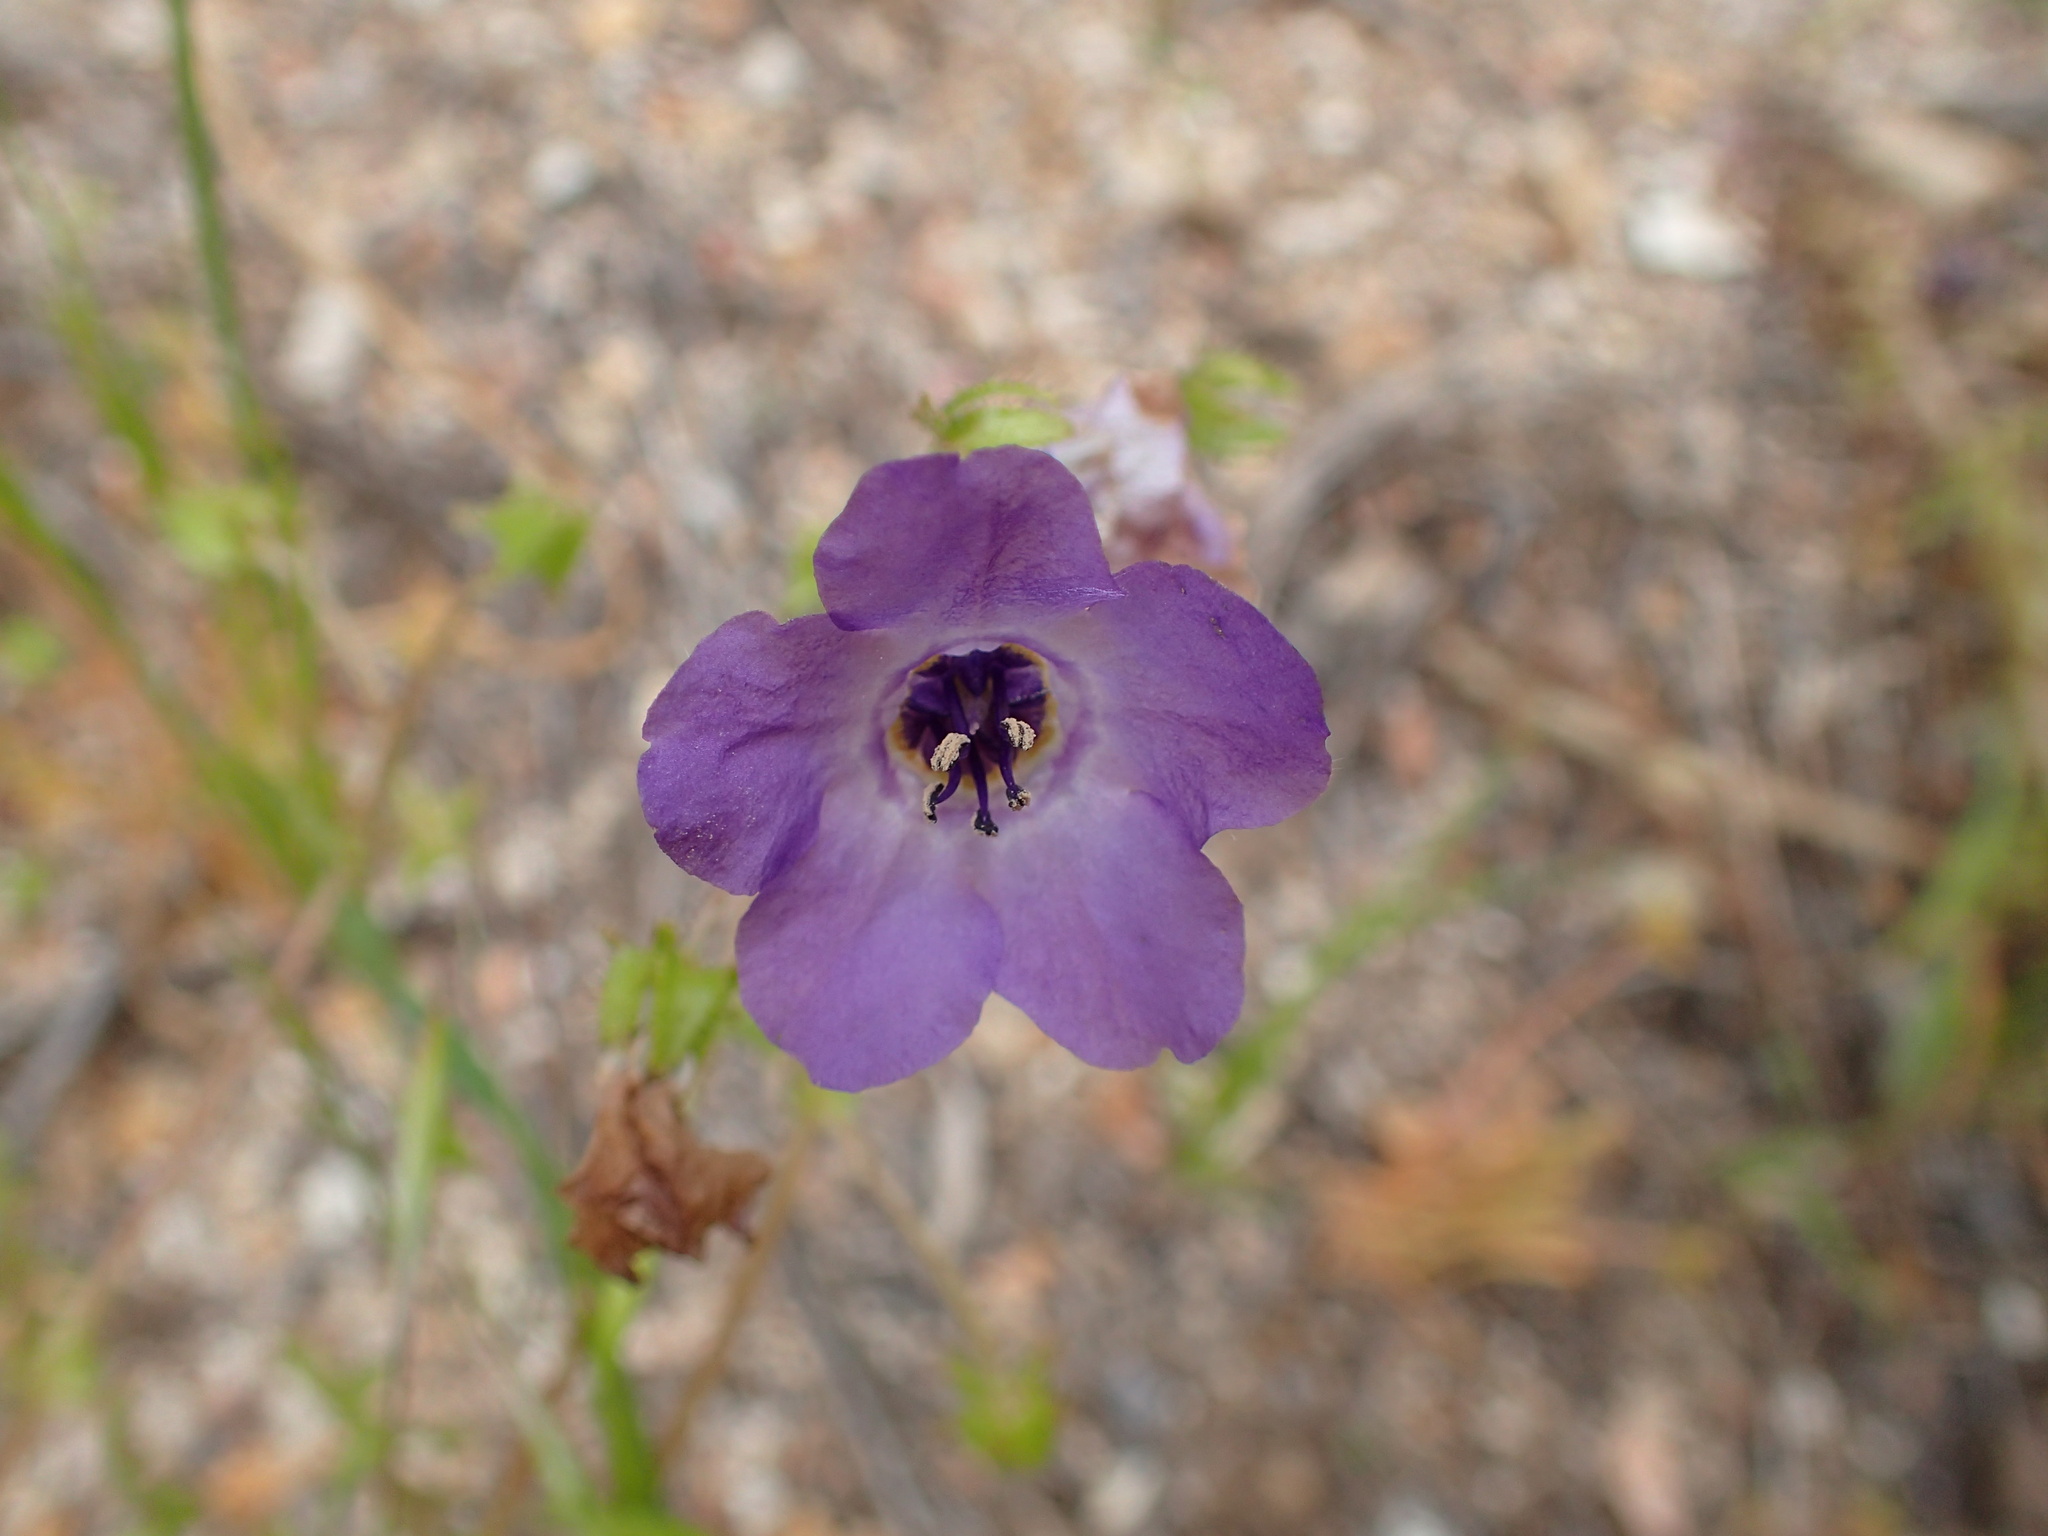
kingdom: Plantae
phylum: Tracheophyta
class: Magnoliopsida
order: Boraginales
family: Hydrophyllaceae
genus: Pholistoma
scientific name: Pholistoma auritum
